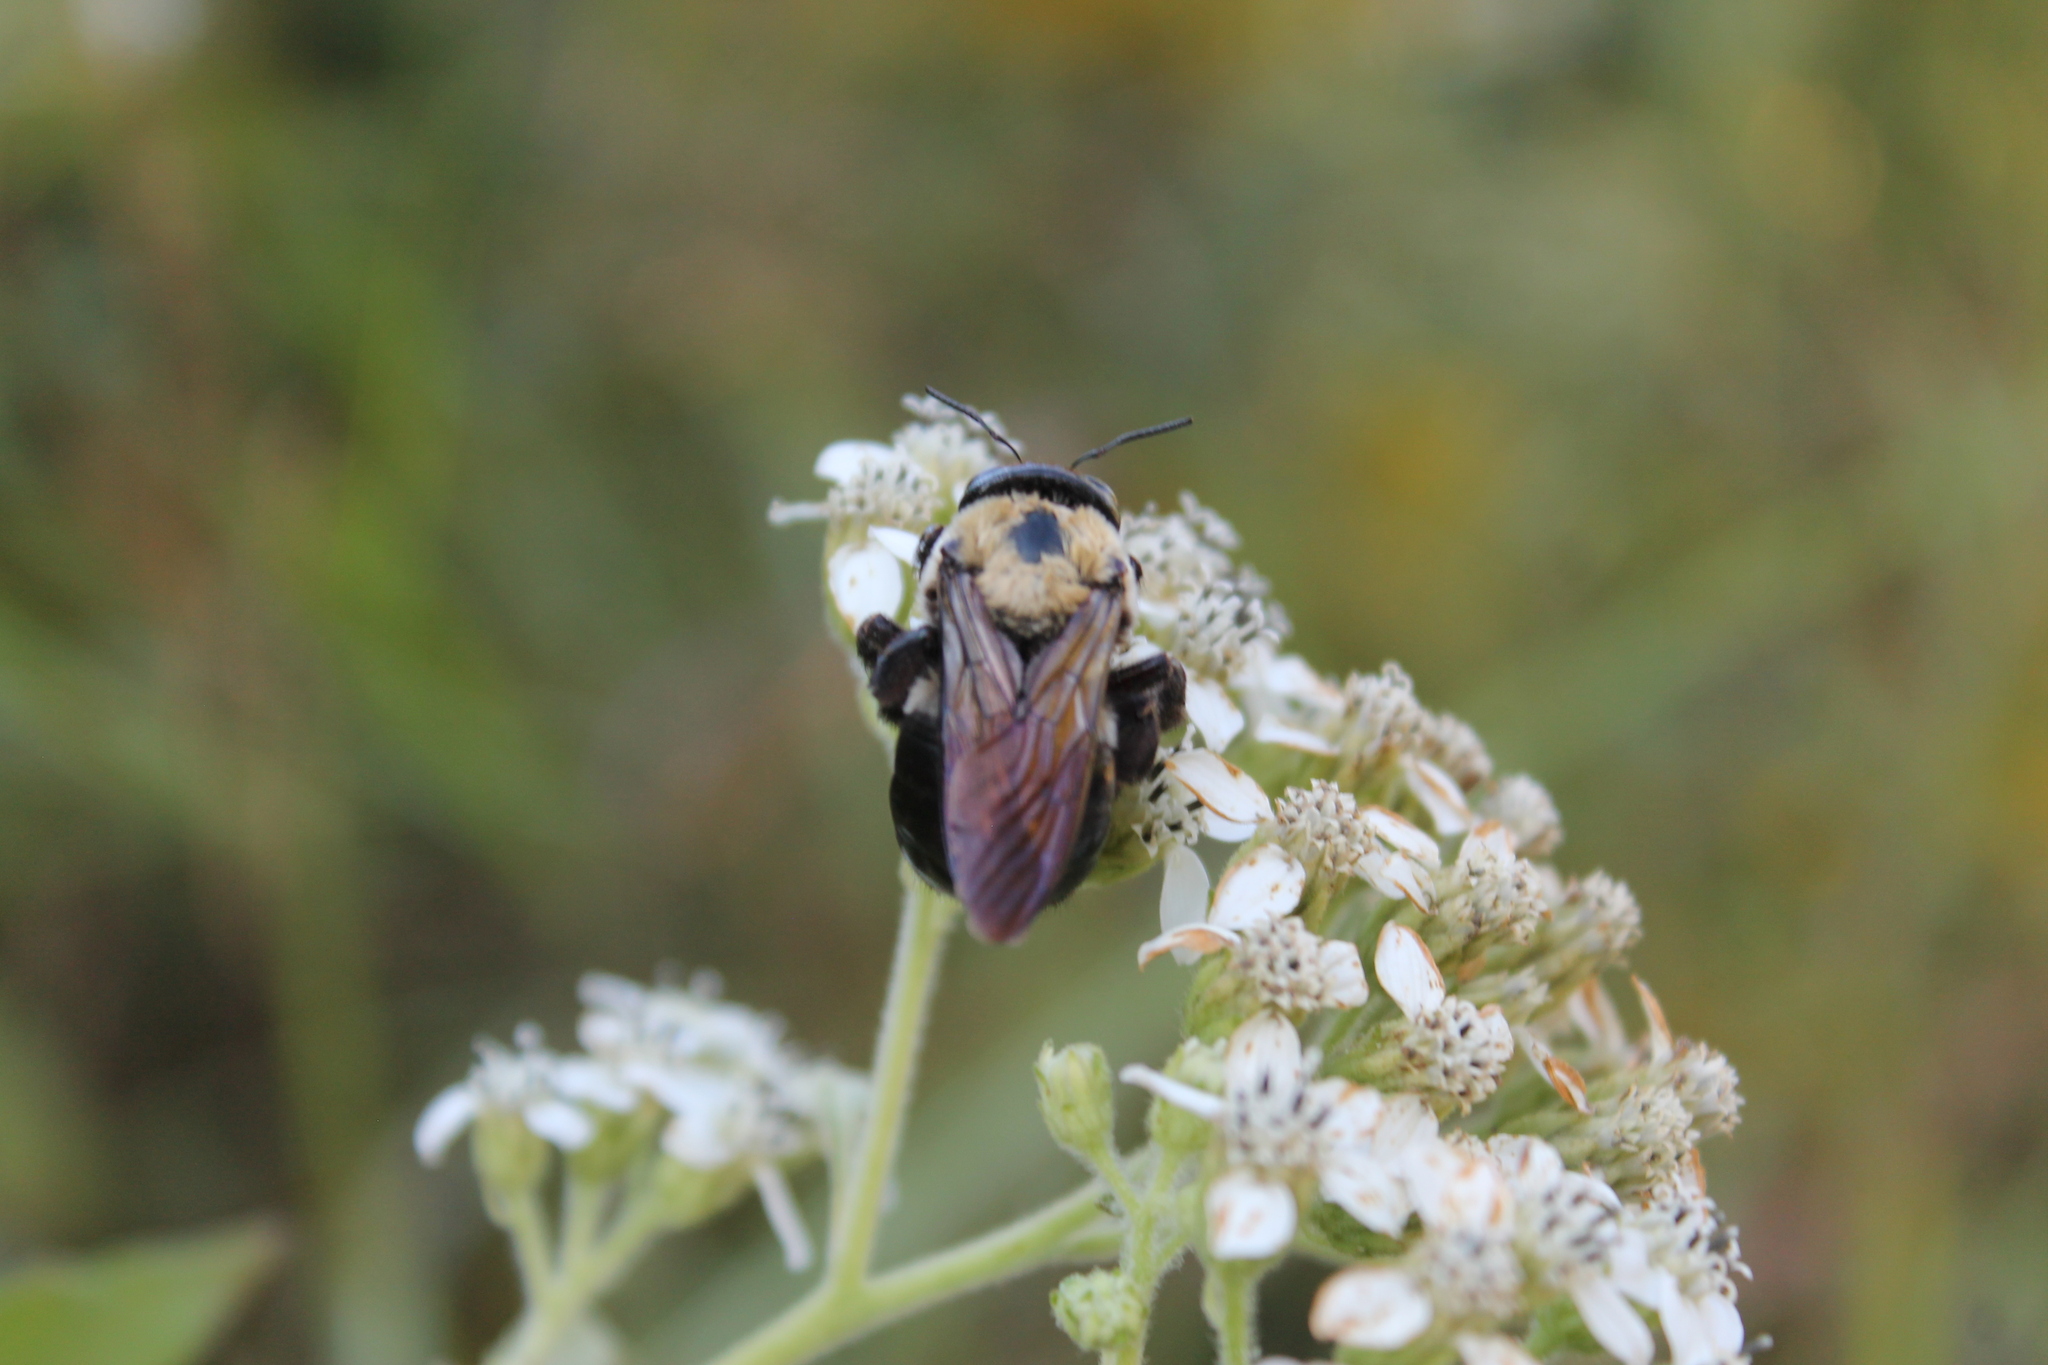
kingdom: Animalia
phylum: Arthropoda
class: Insecta
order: Hymenoptera
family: Apidae
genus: Xylocopa
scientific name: Xylocopa virginica
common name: Carpenter bee
